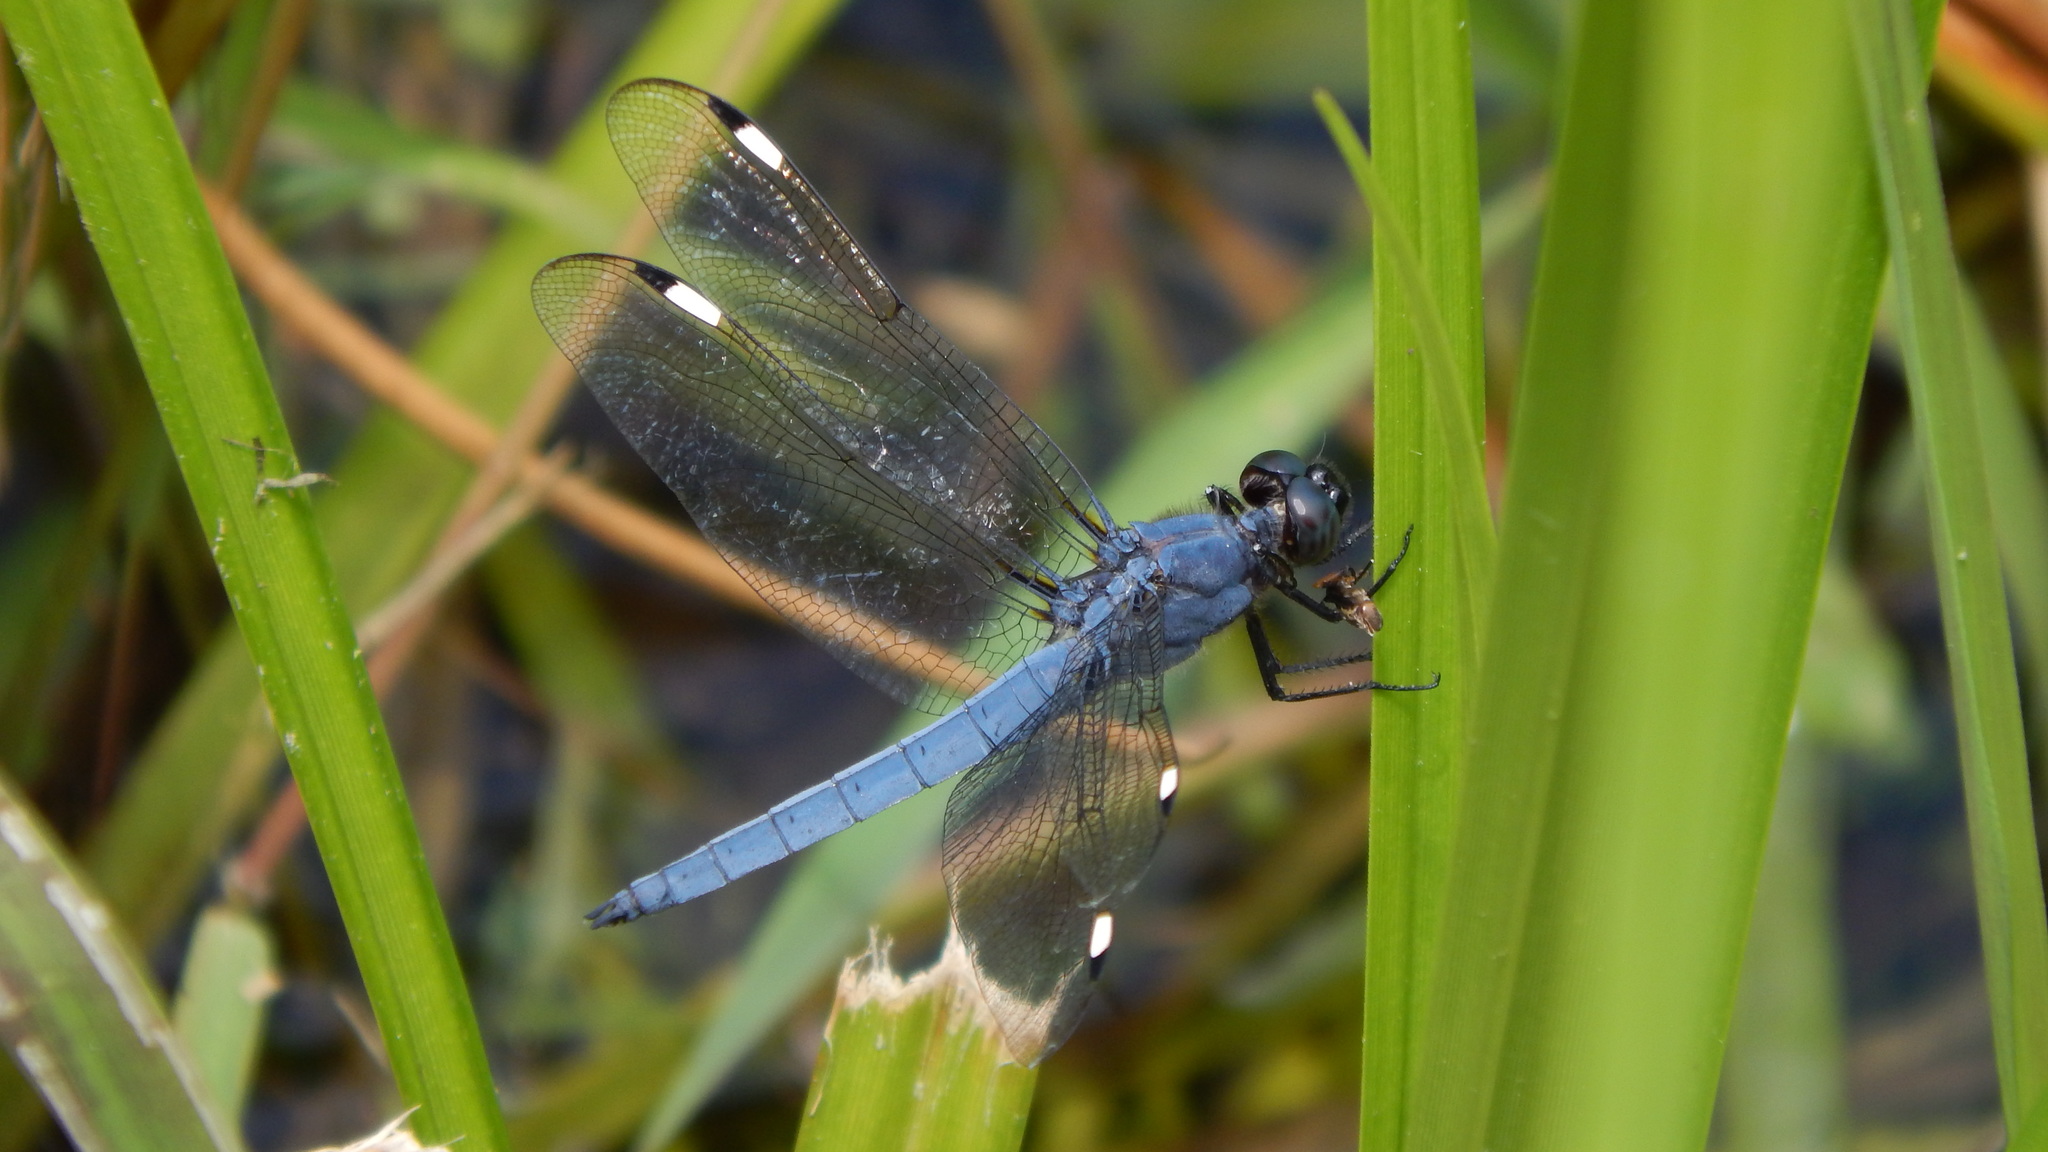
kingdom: Animalia
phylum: Arthropoda
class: Insecta
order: Odonata
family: Libellulidae
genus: Libellula
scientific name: Libellula cyanea
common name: Spangled skimmer
